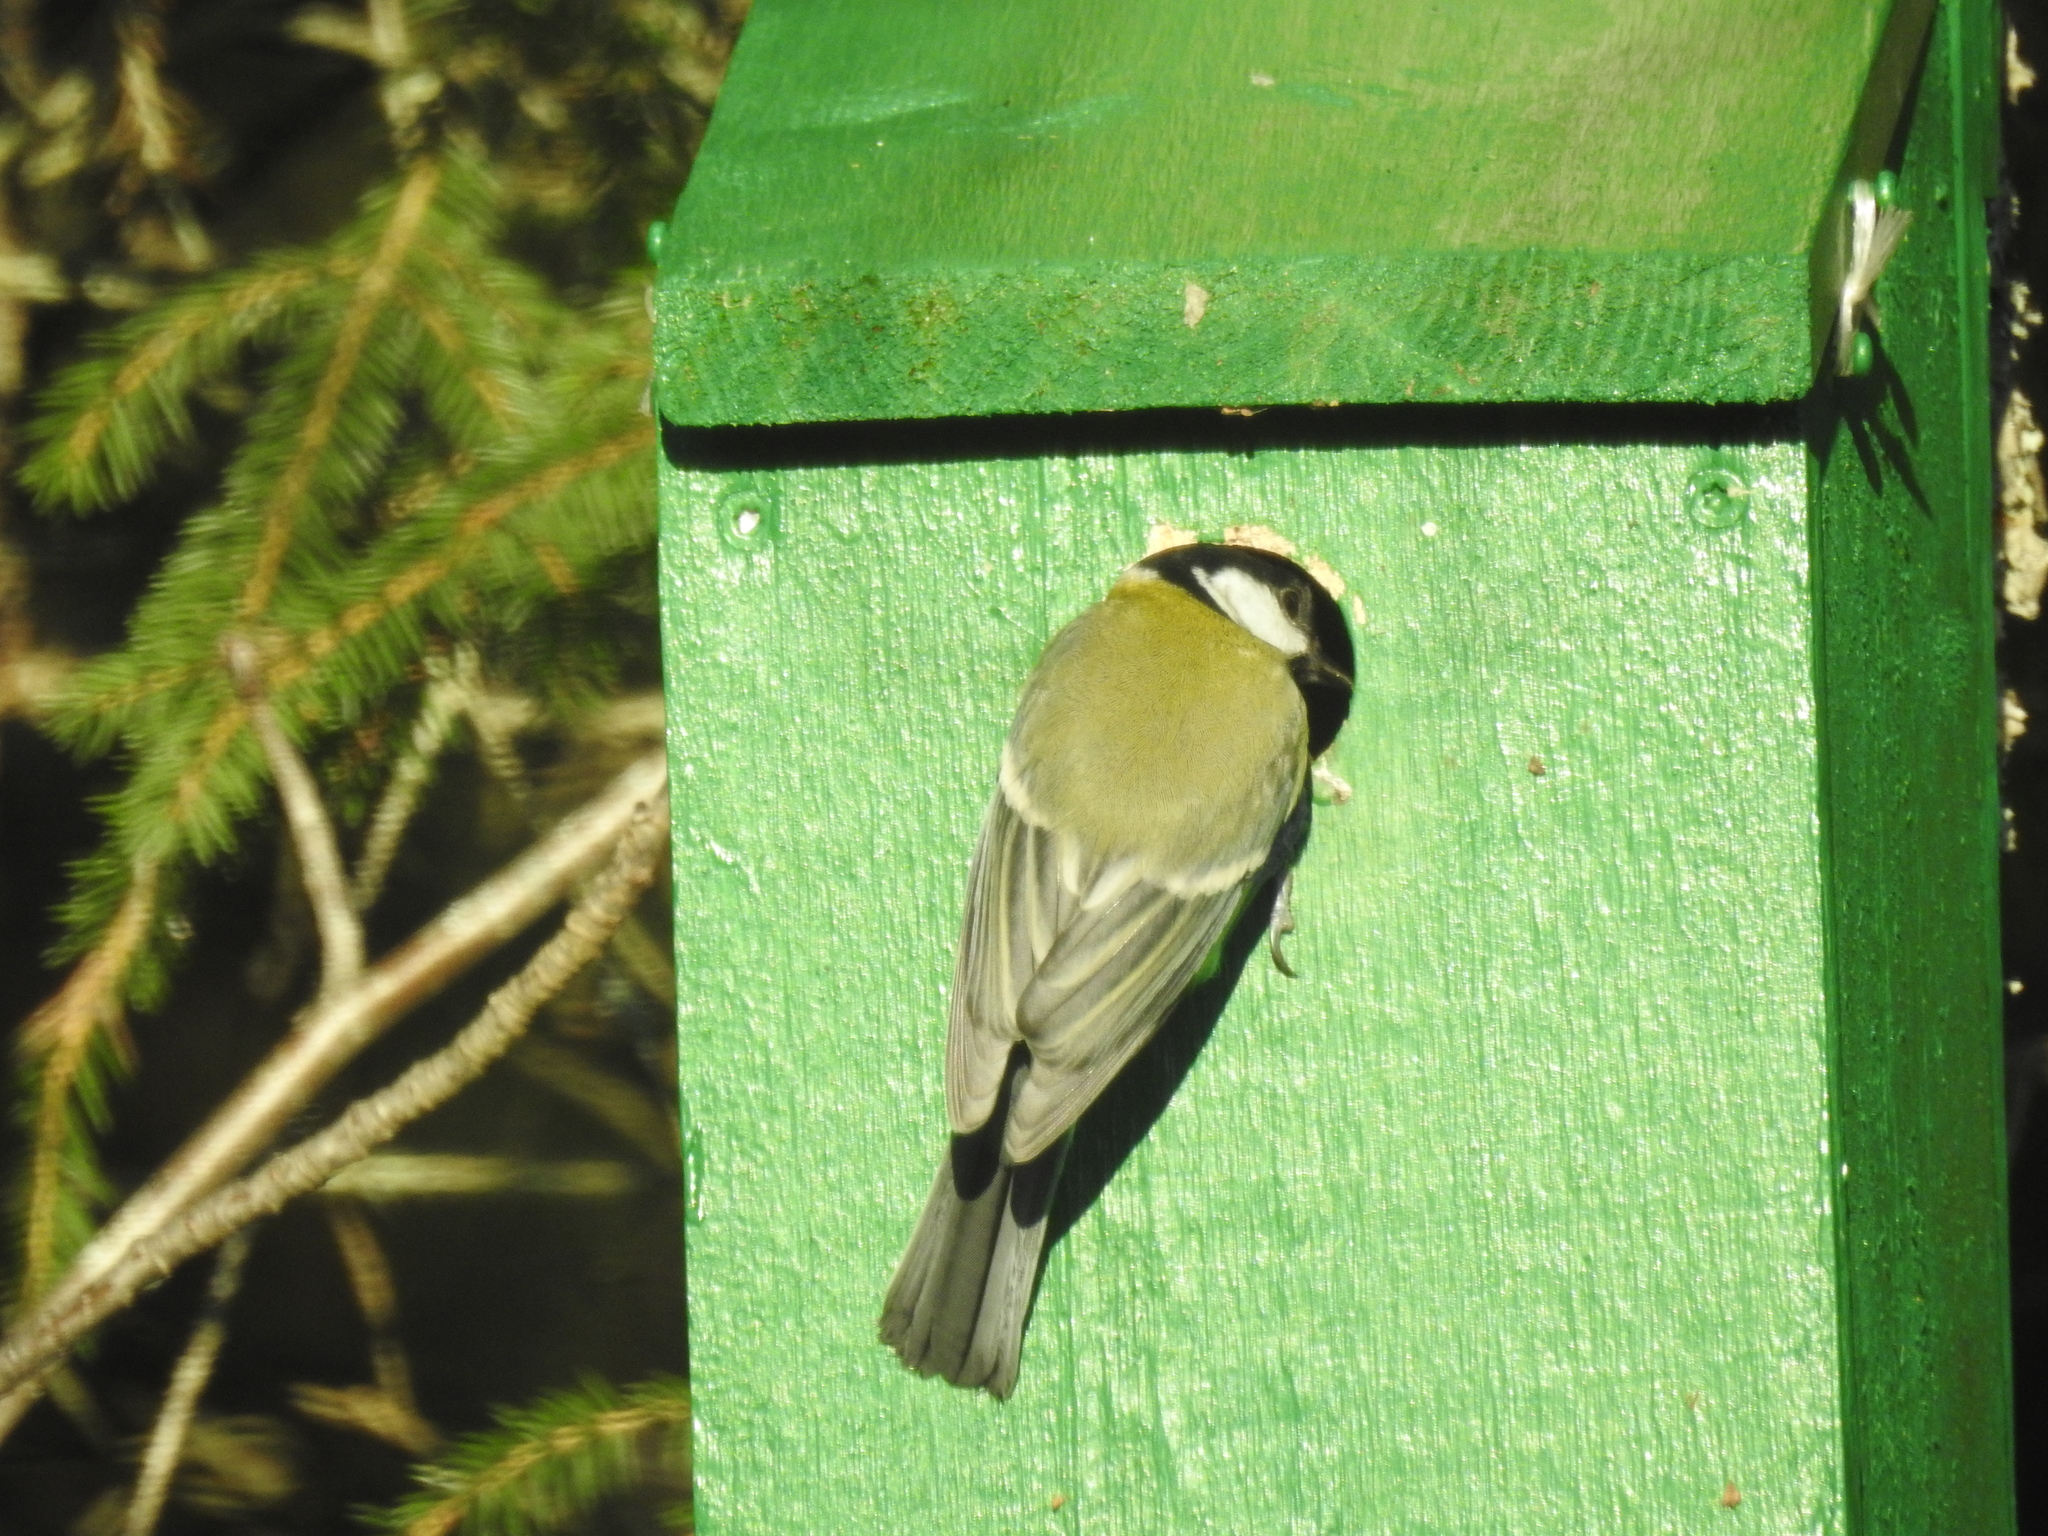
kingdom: Animalia
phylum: Chordata
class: Aves
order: Passeriformes
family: Paridae
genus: Parus
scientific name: Parus major
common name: Great tit
